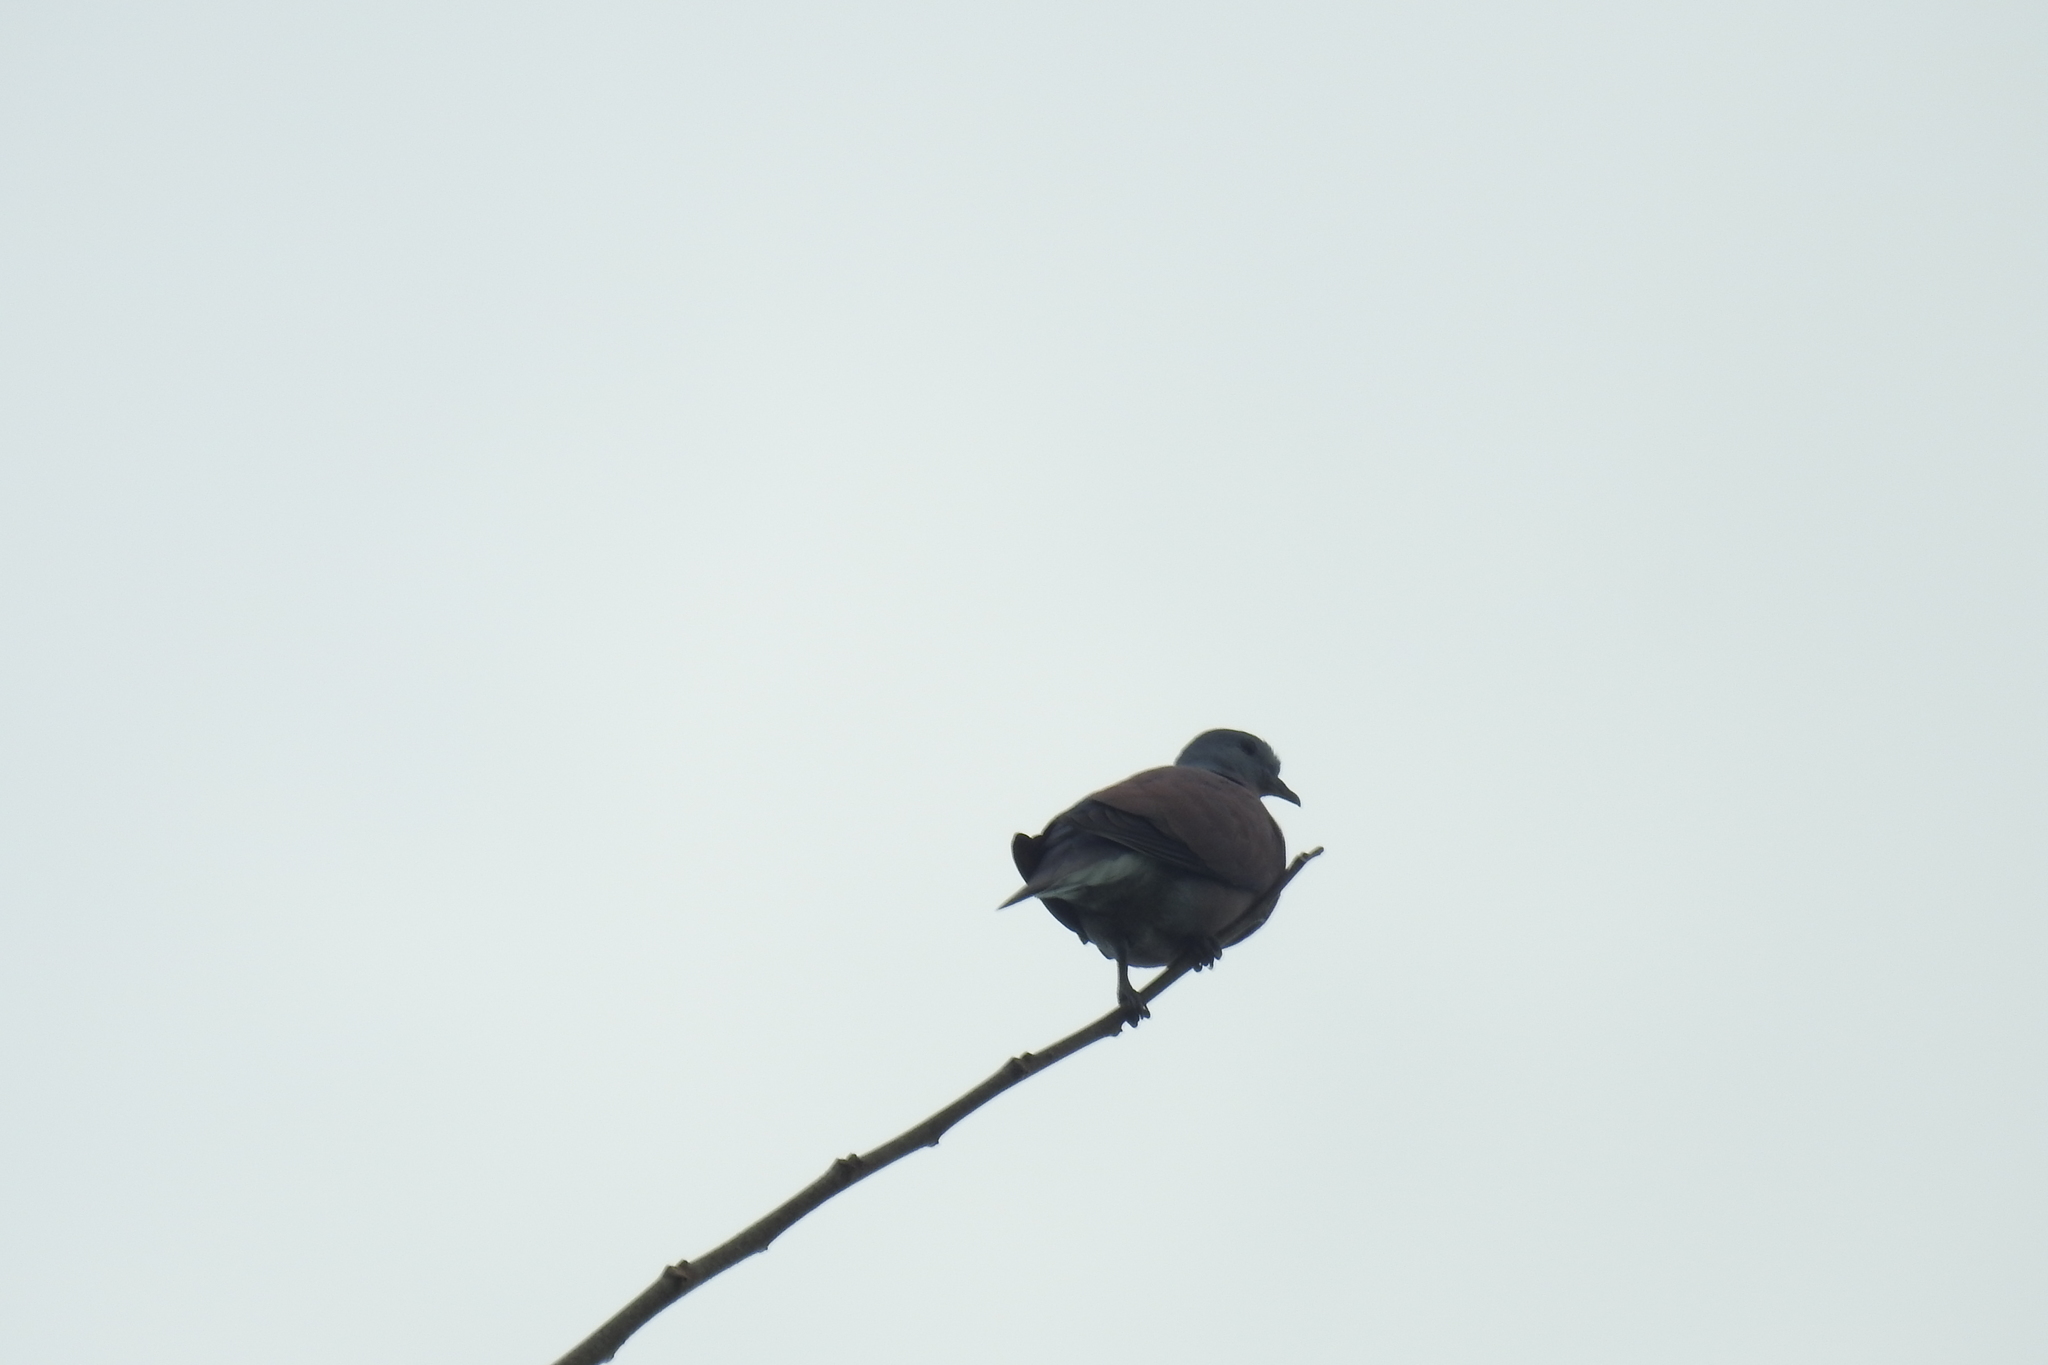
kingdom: Animalia
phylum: Chordata
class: Aves
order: Columbiformes
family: Columbidae
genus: Streptopelia
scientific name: Streptopelia tranquebarica
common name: Red turtle dove
